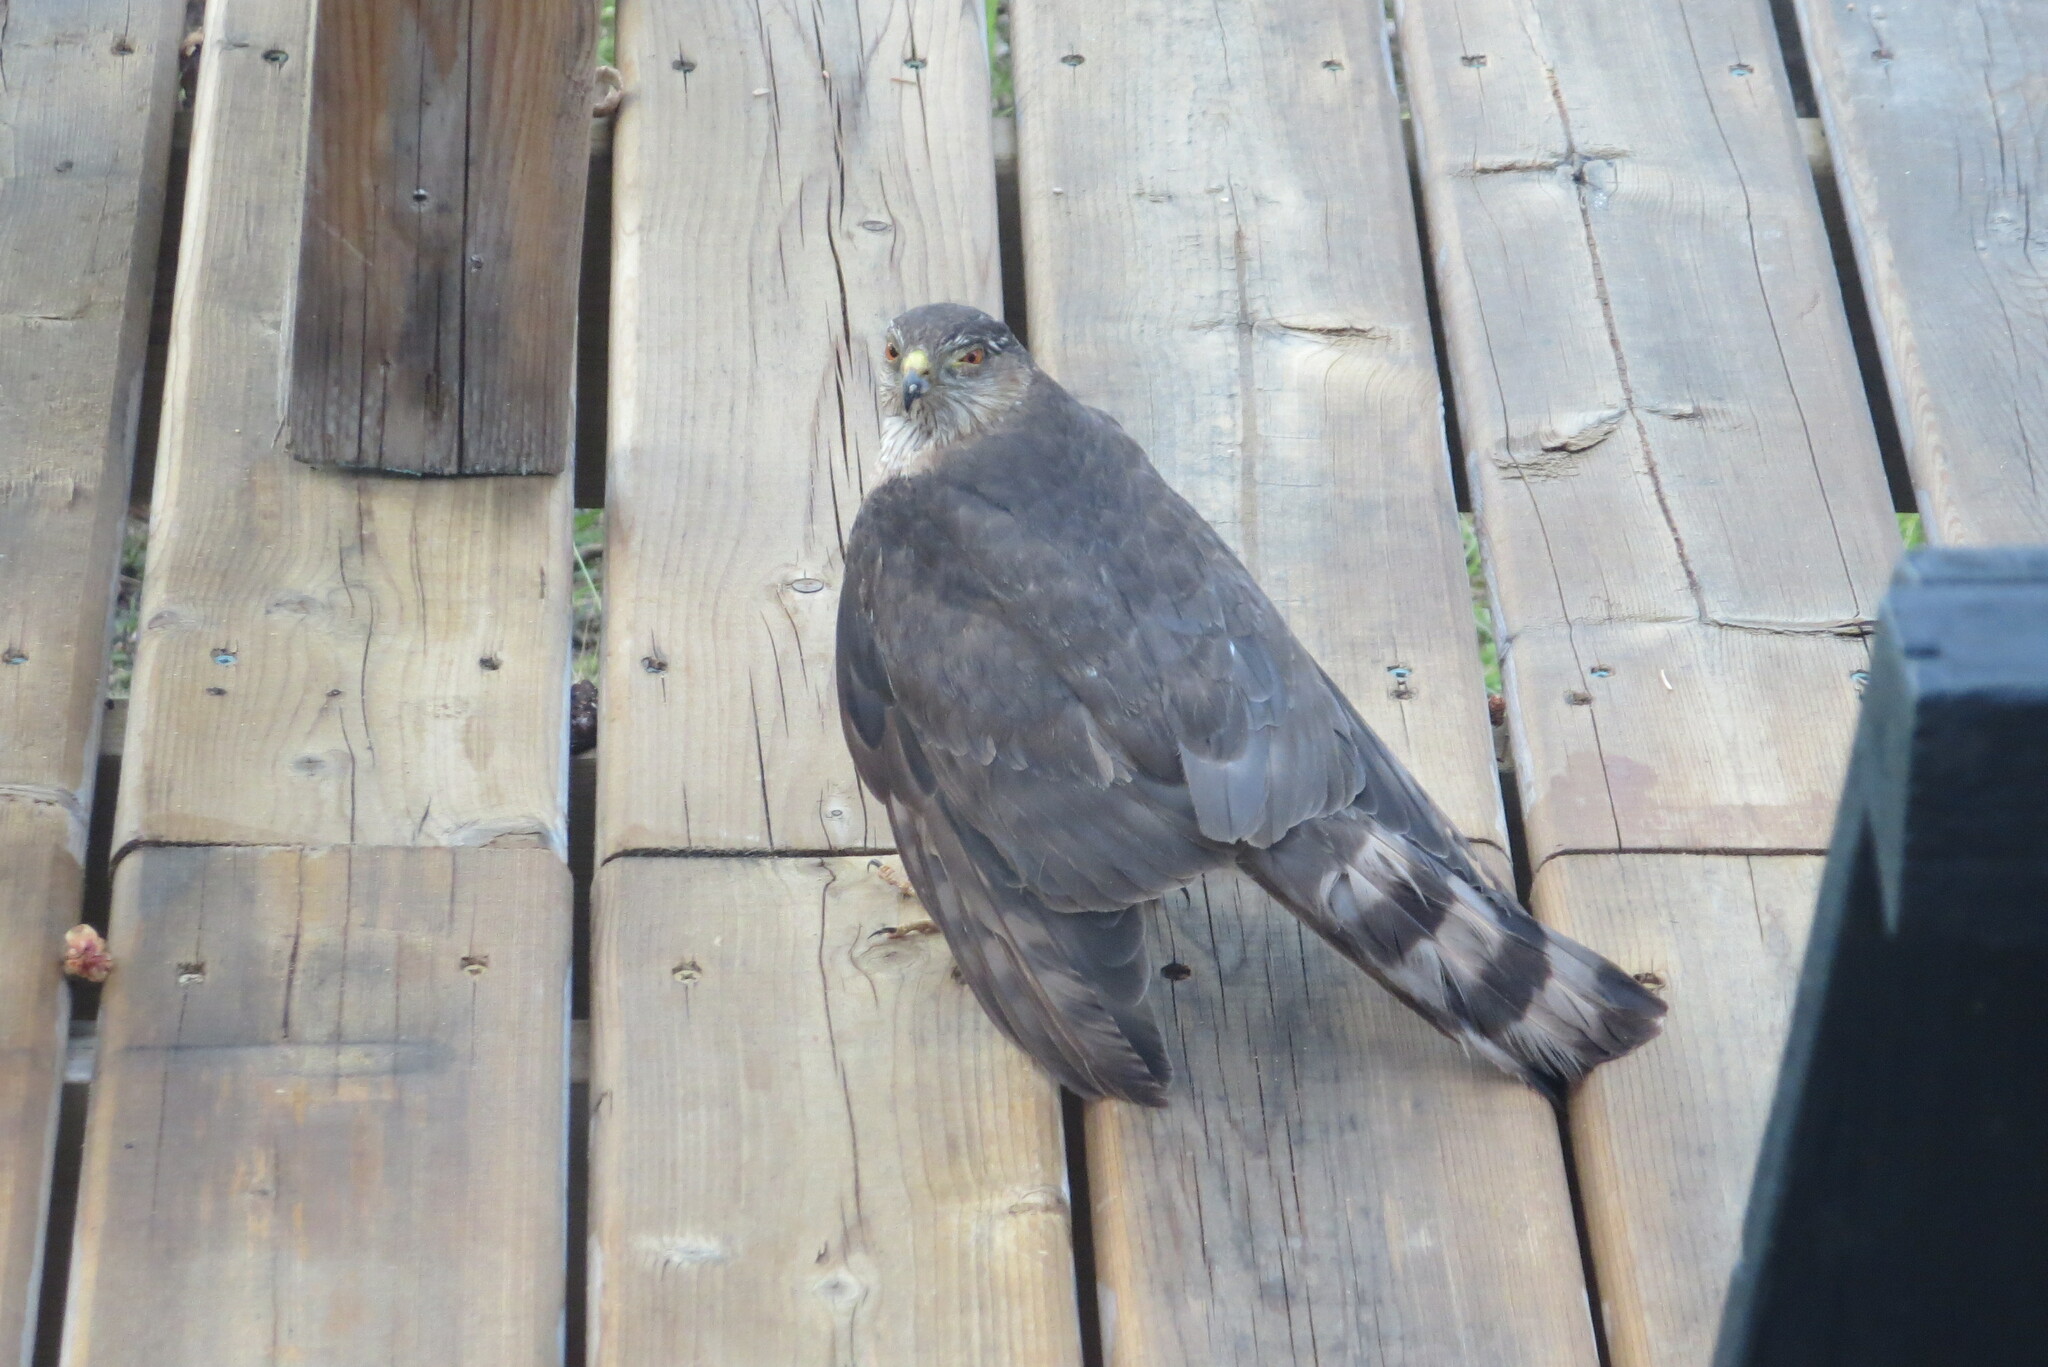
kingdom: Animalia
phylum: Chordata
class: Aves
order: Accipitriformes
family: Accipitridae
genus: Accipiter
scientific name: Accipiter striatus
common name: Sharp-shinned hawk
